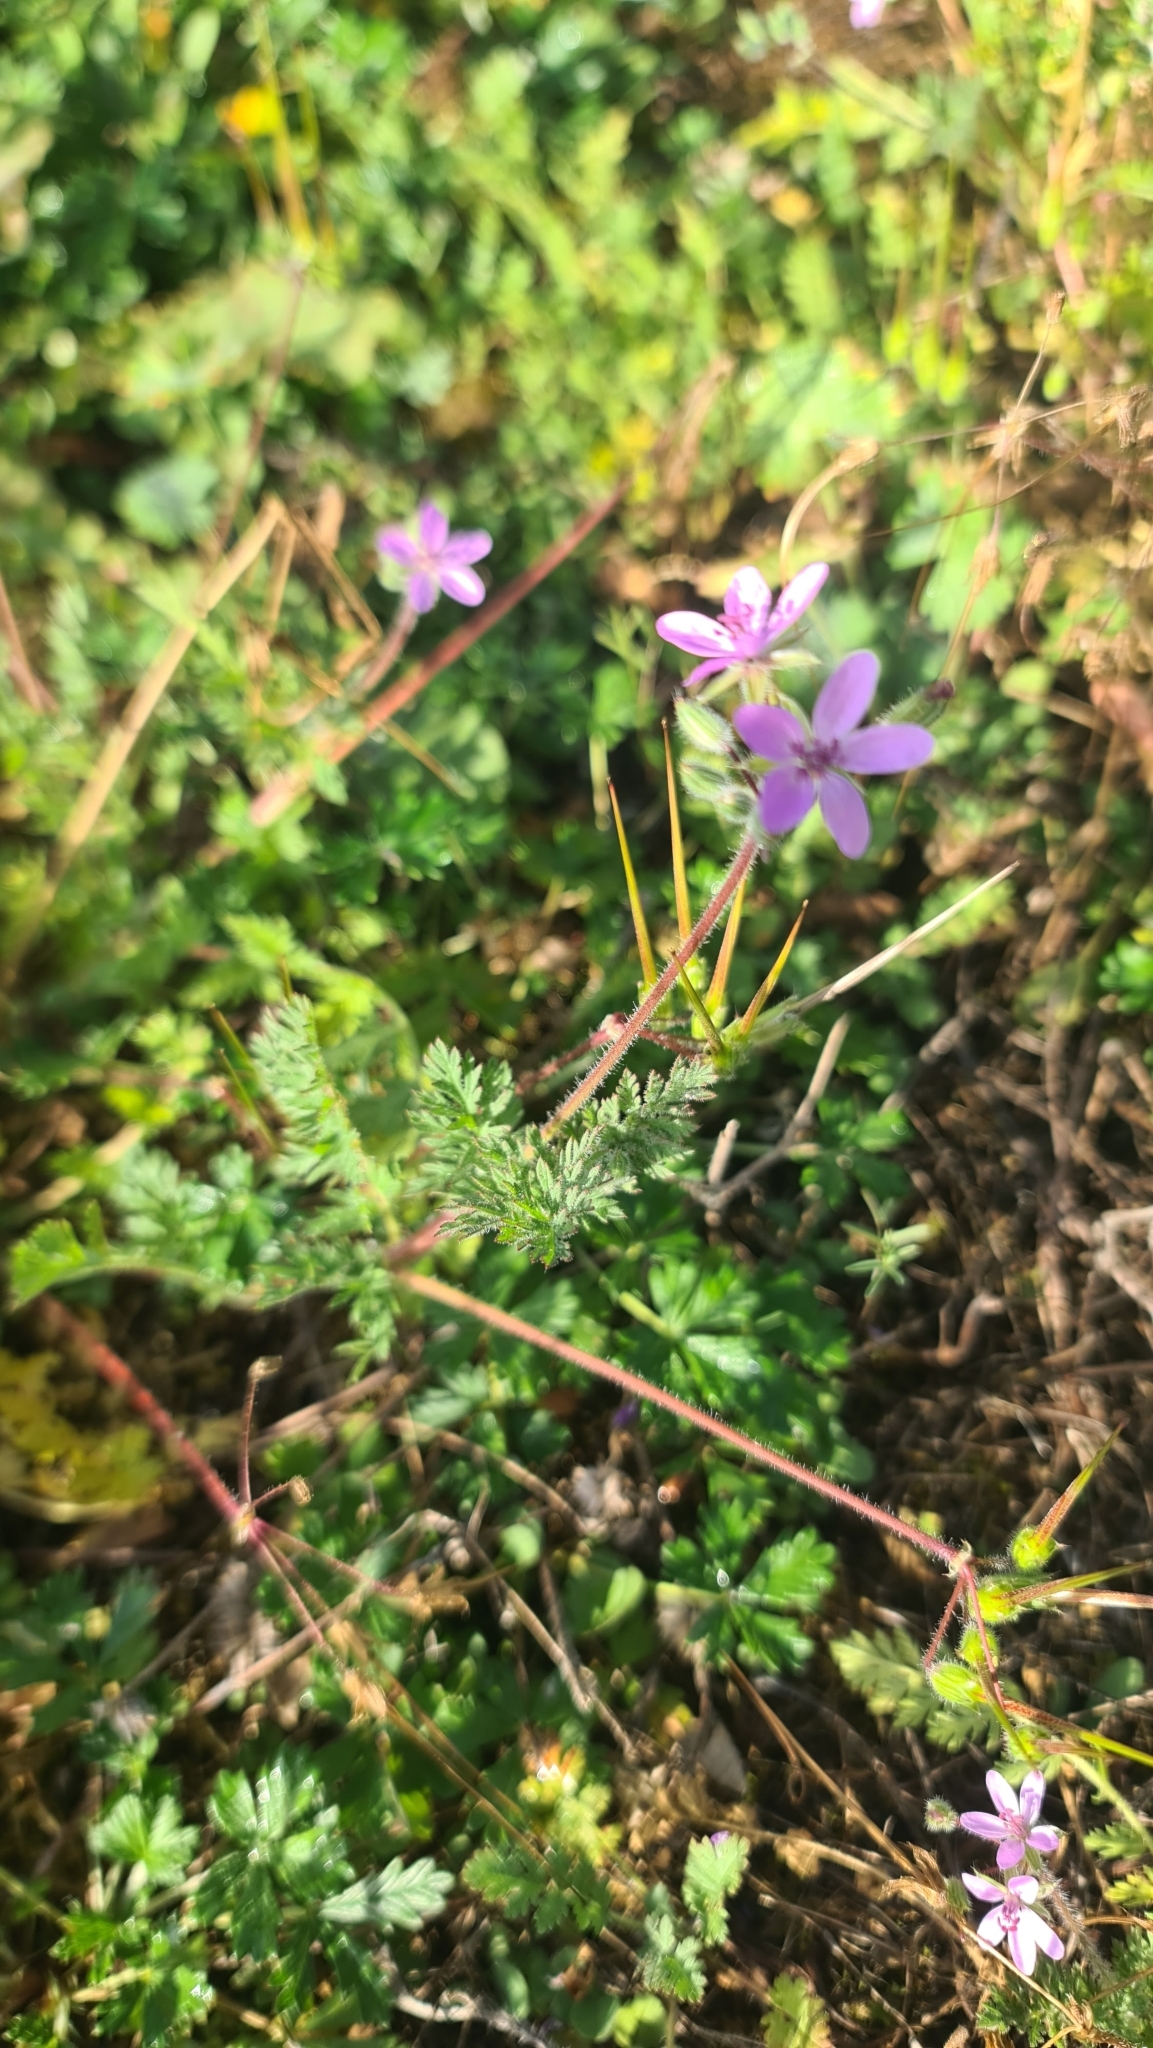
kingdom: Plantae
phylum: Tracheophyta
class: Magnoliopsida
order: Geraniales
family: Geraniaceae
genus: Erodium
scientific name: Erodium cicutarium
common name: Common stork's-bill
